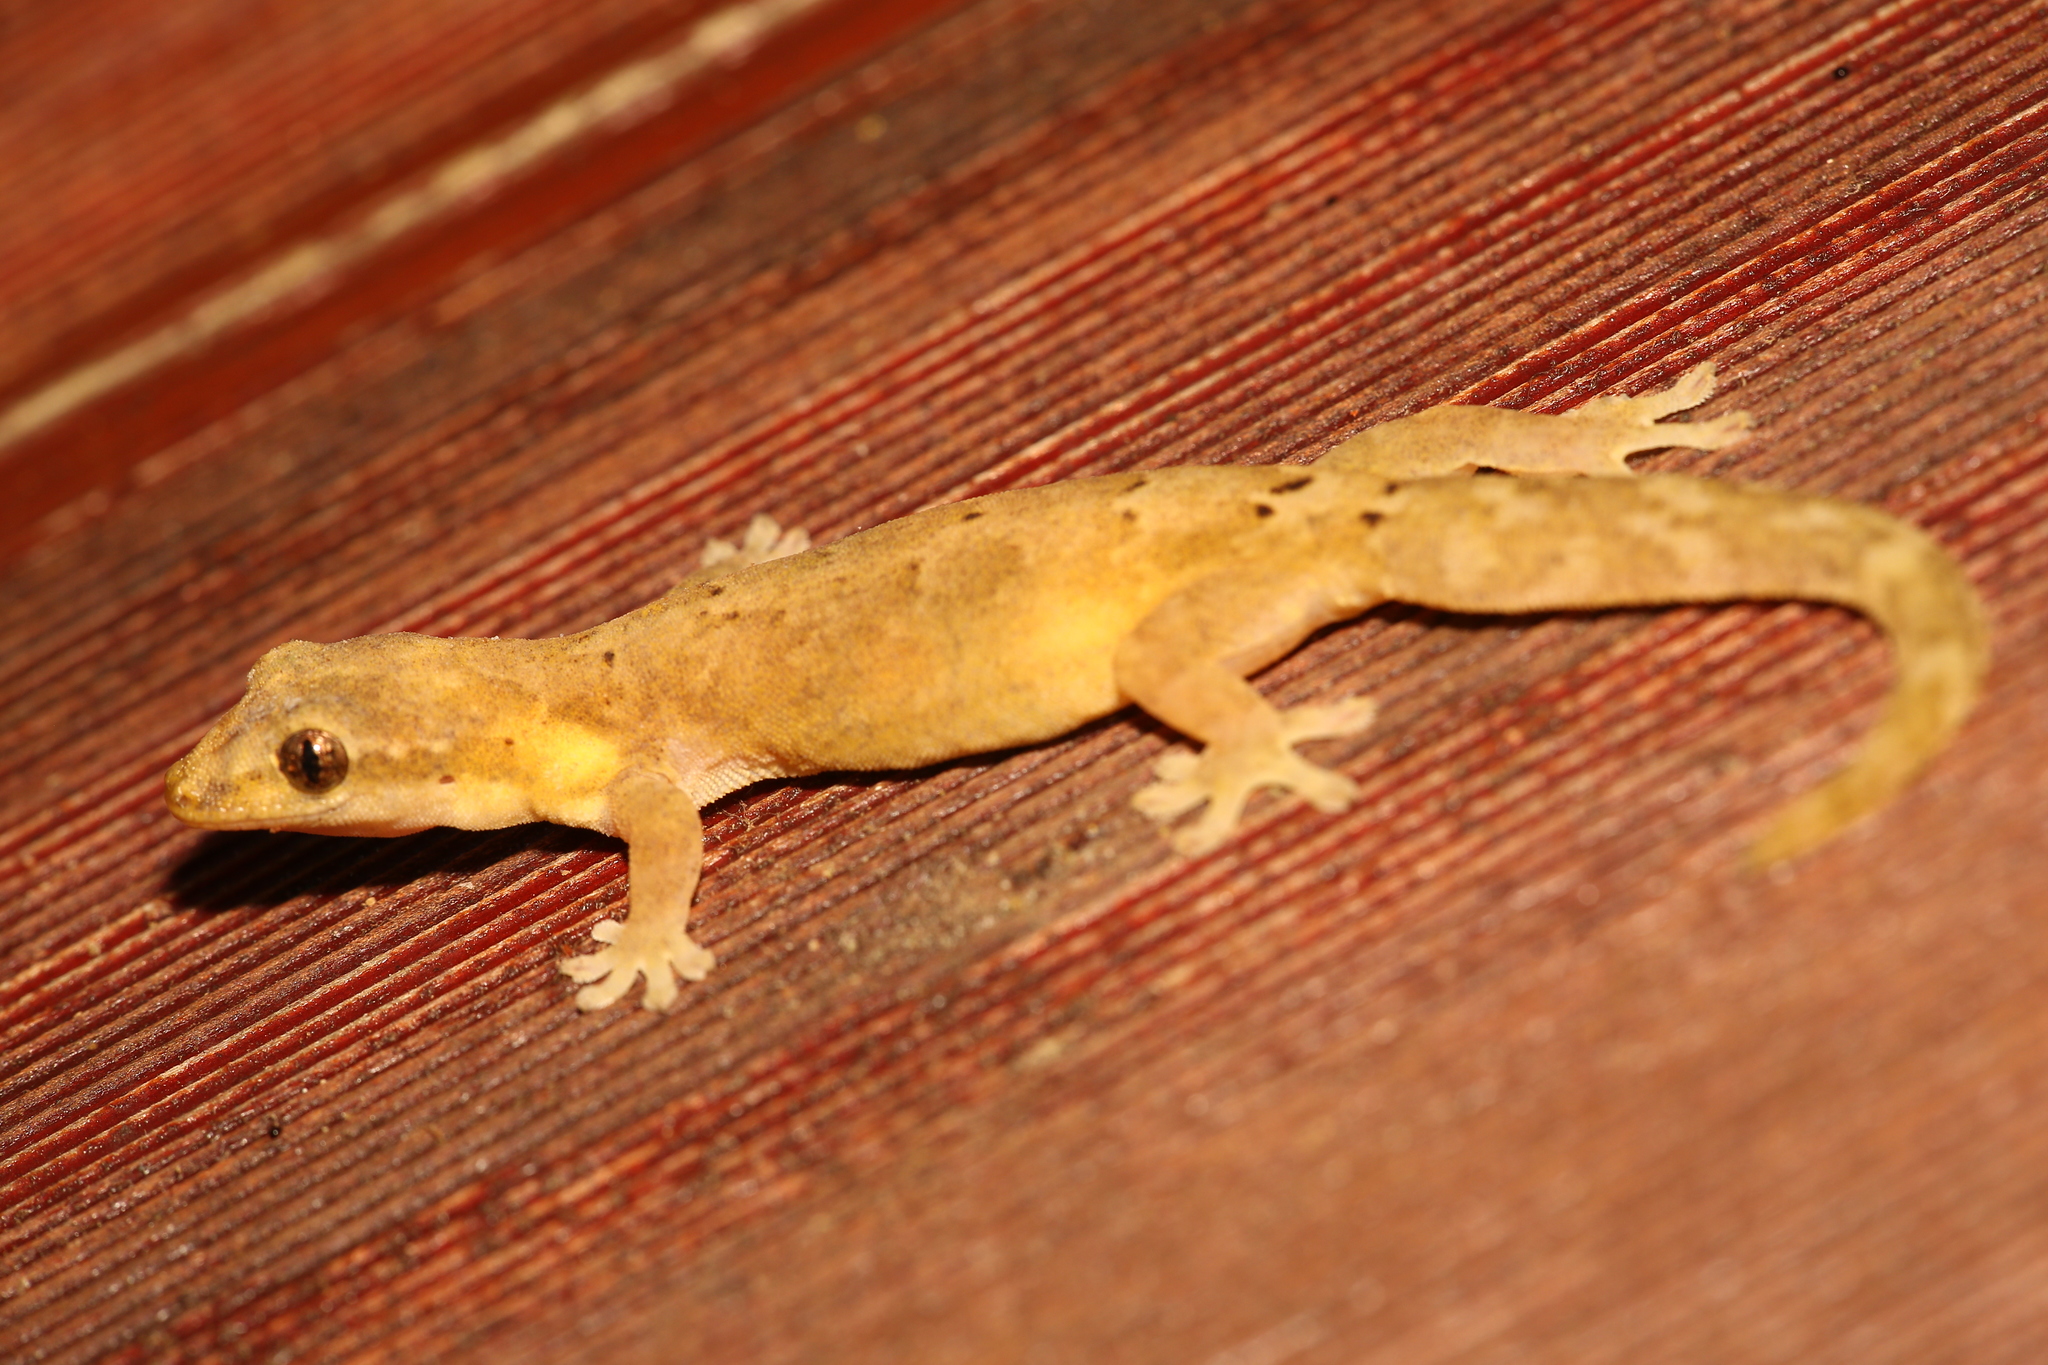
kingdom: Animalia
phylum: Chordata
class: Squamata
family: Gekkonidae
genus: Lepidodactylus
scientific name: Lepidodactylus lugubris
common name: Mourning gecko
